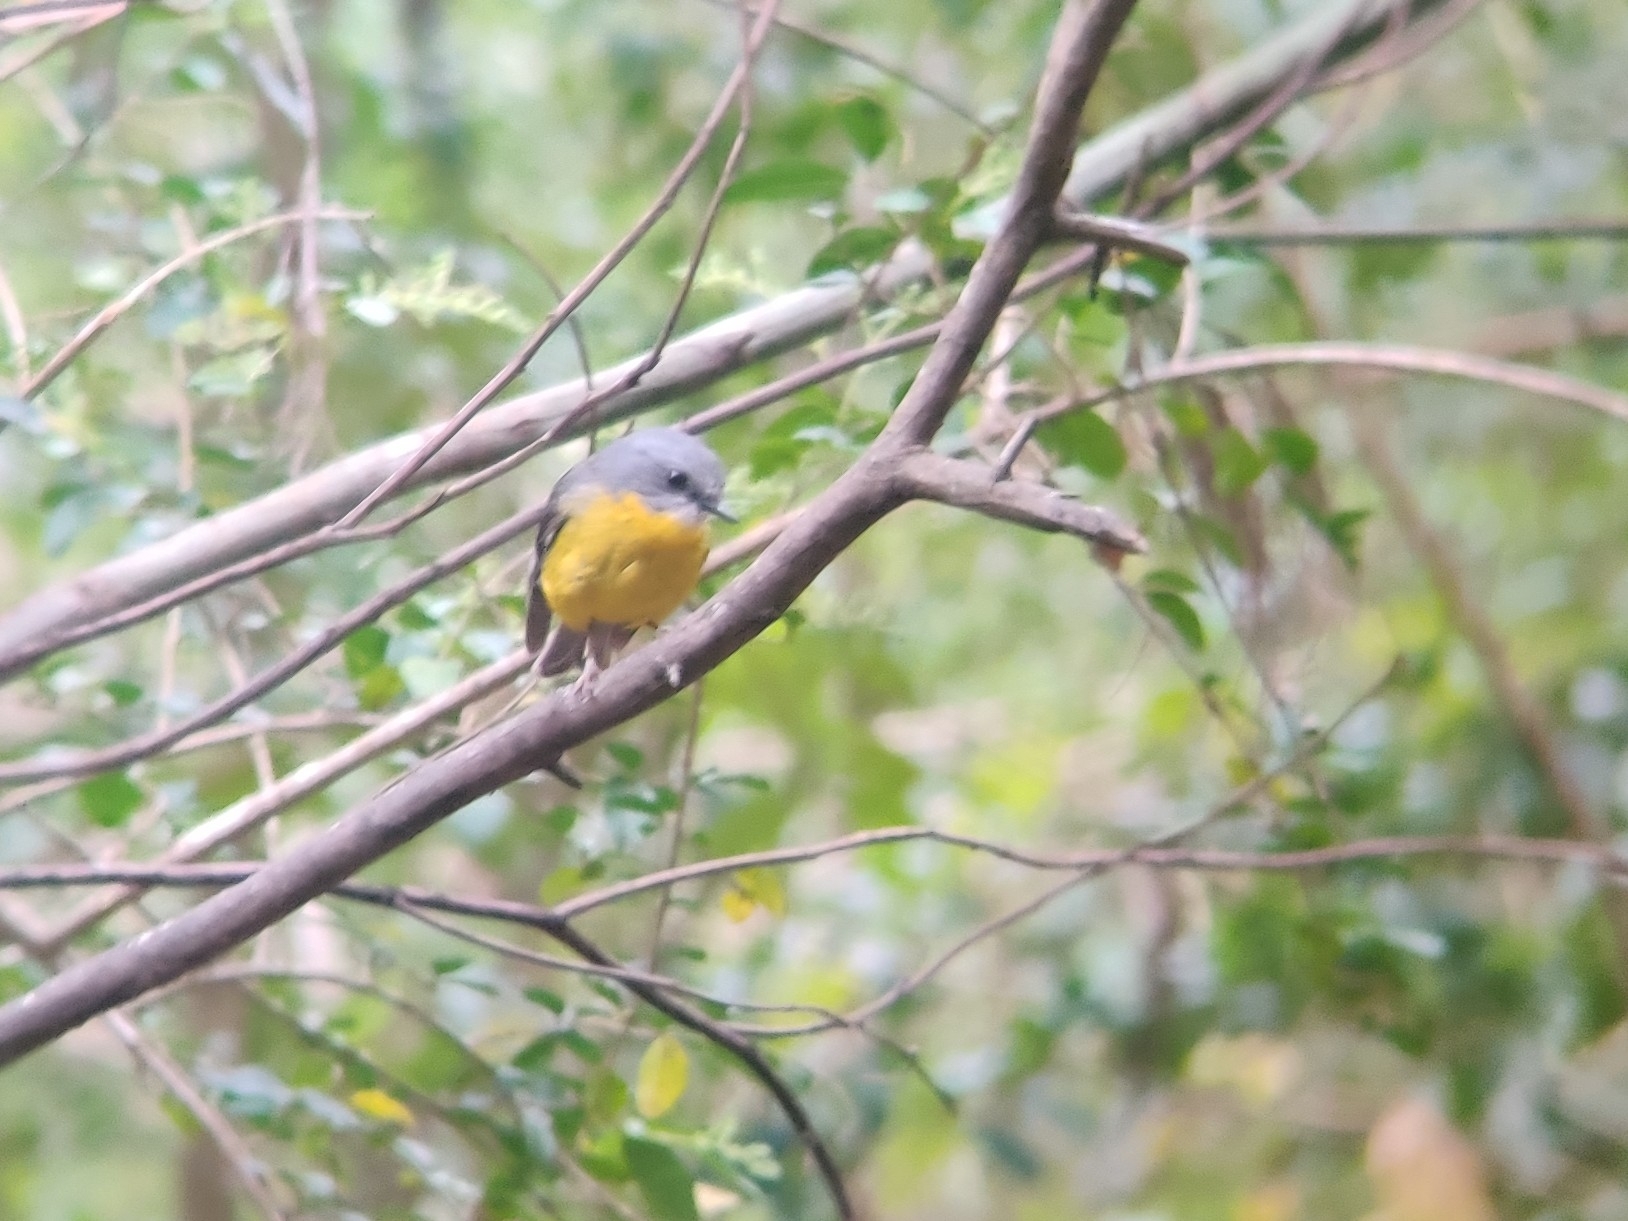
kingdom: Animalia
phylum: Chordata
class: Aves
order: Passeriformes
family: Petroicidae
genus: Eopsaltria
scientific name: Eopsaltria australis
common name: Eastern yellow robin
